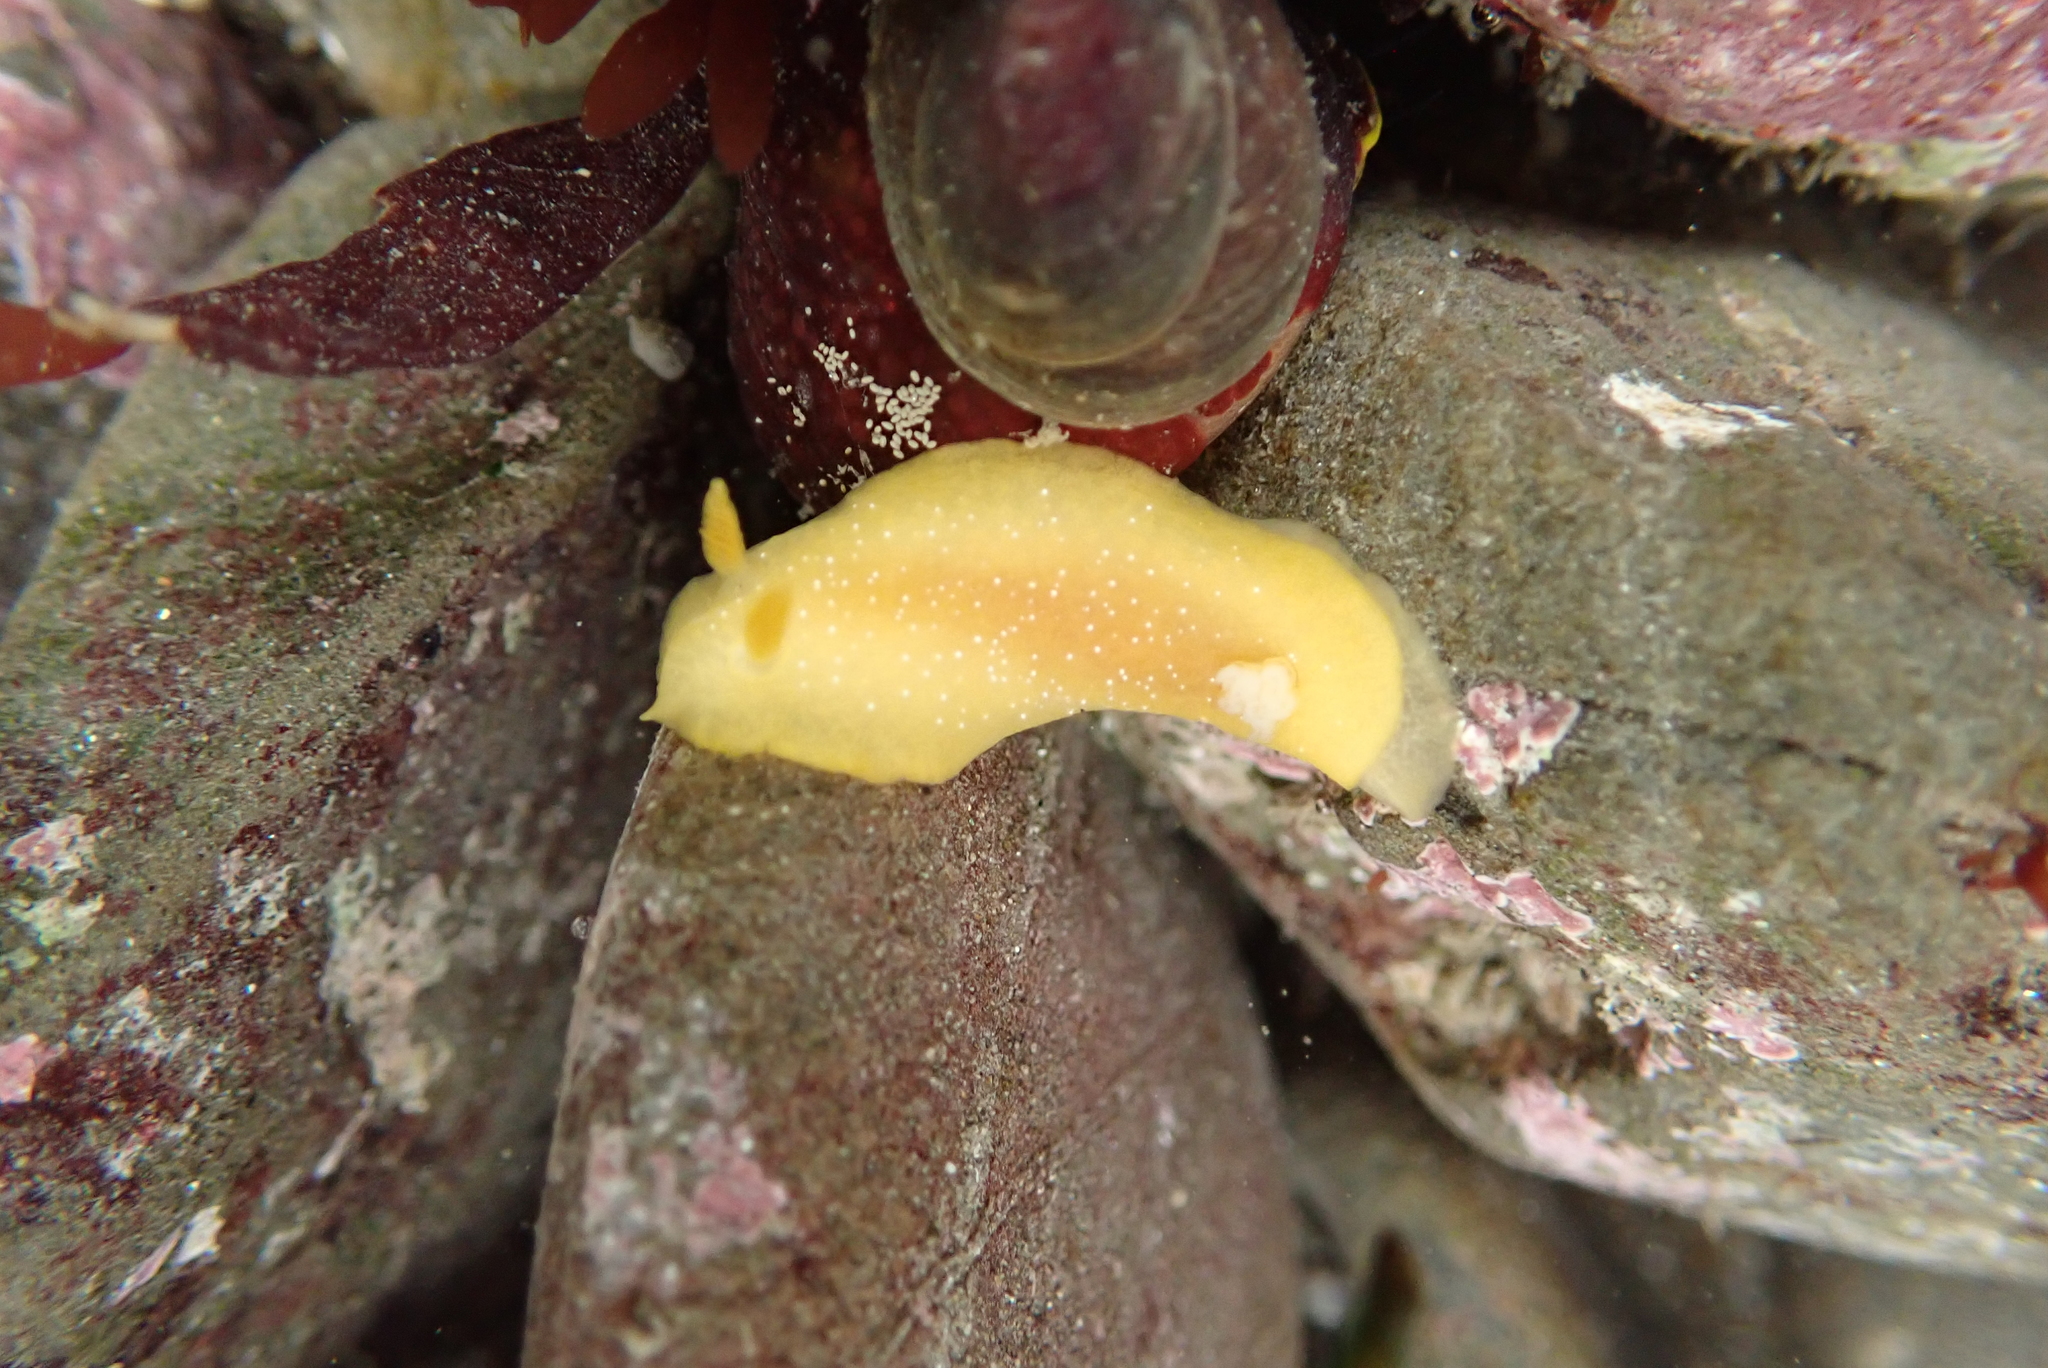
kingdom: Animalia
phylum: Mollusca
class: Gastropoda
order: Nudibranchia
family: Dendrodorididae
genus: Doriopsilla
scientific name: Doriopsilla fulva
